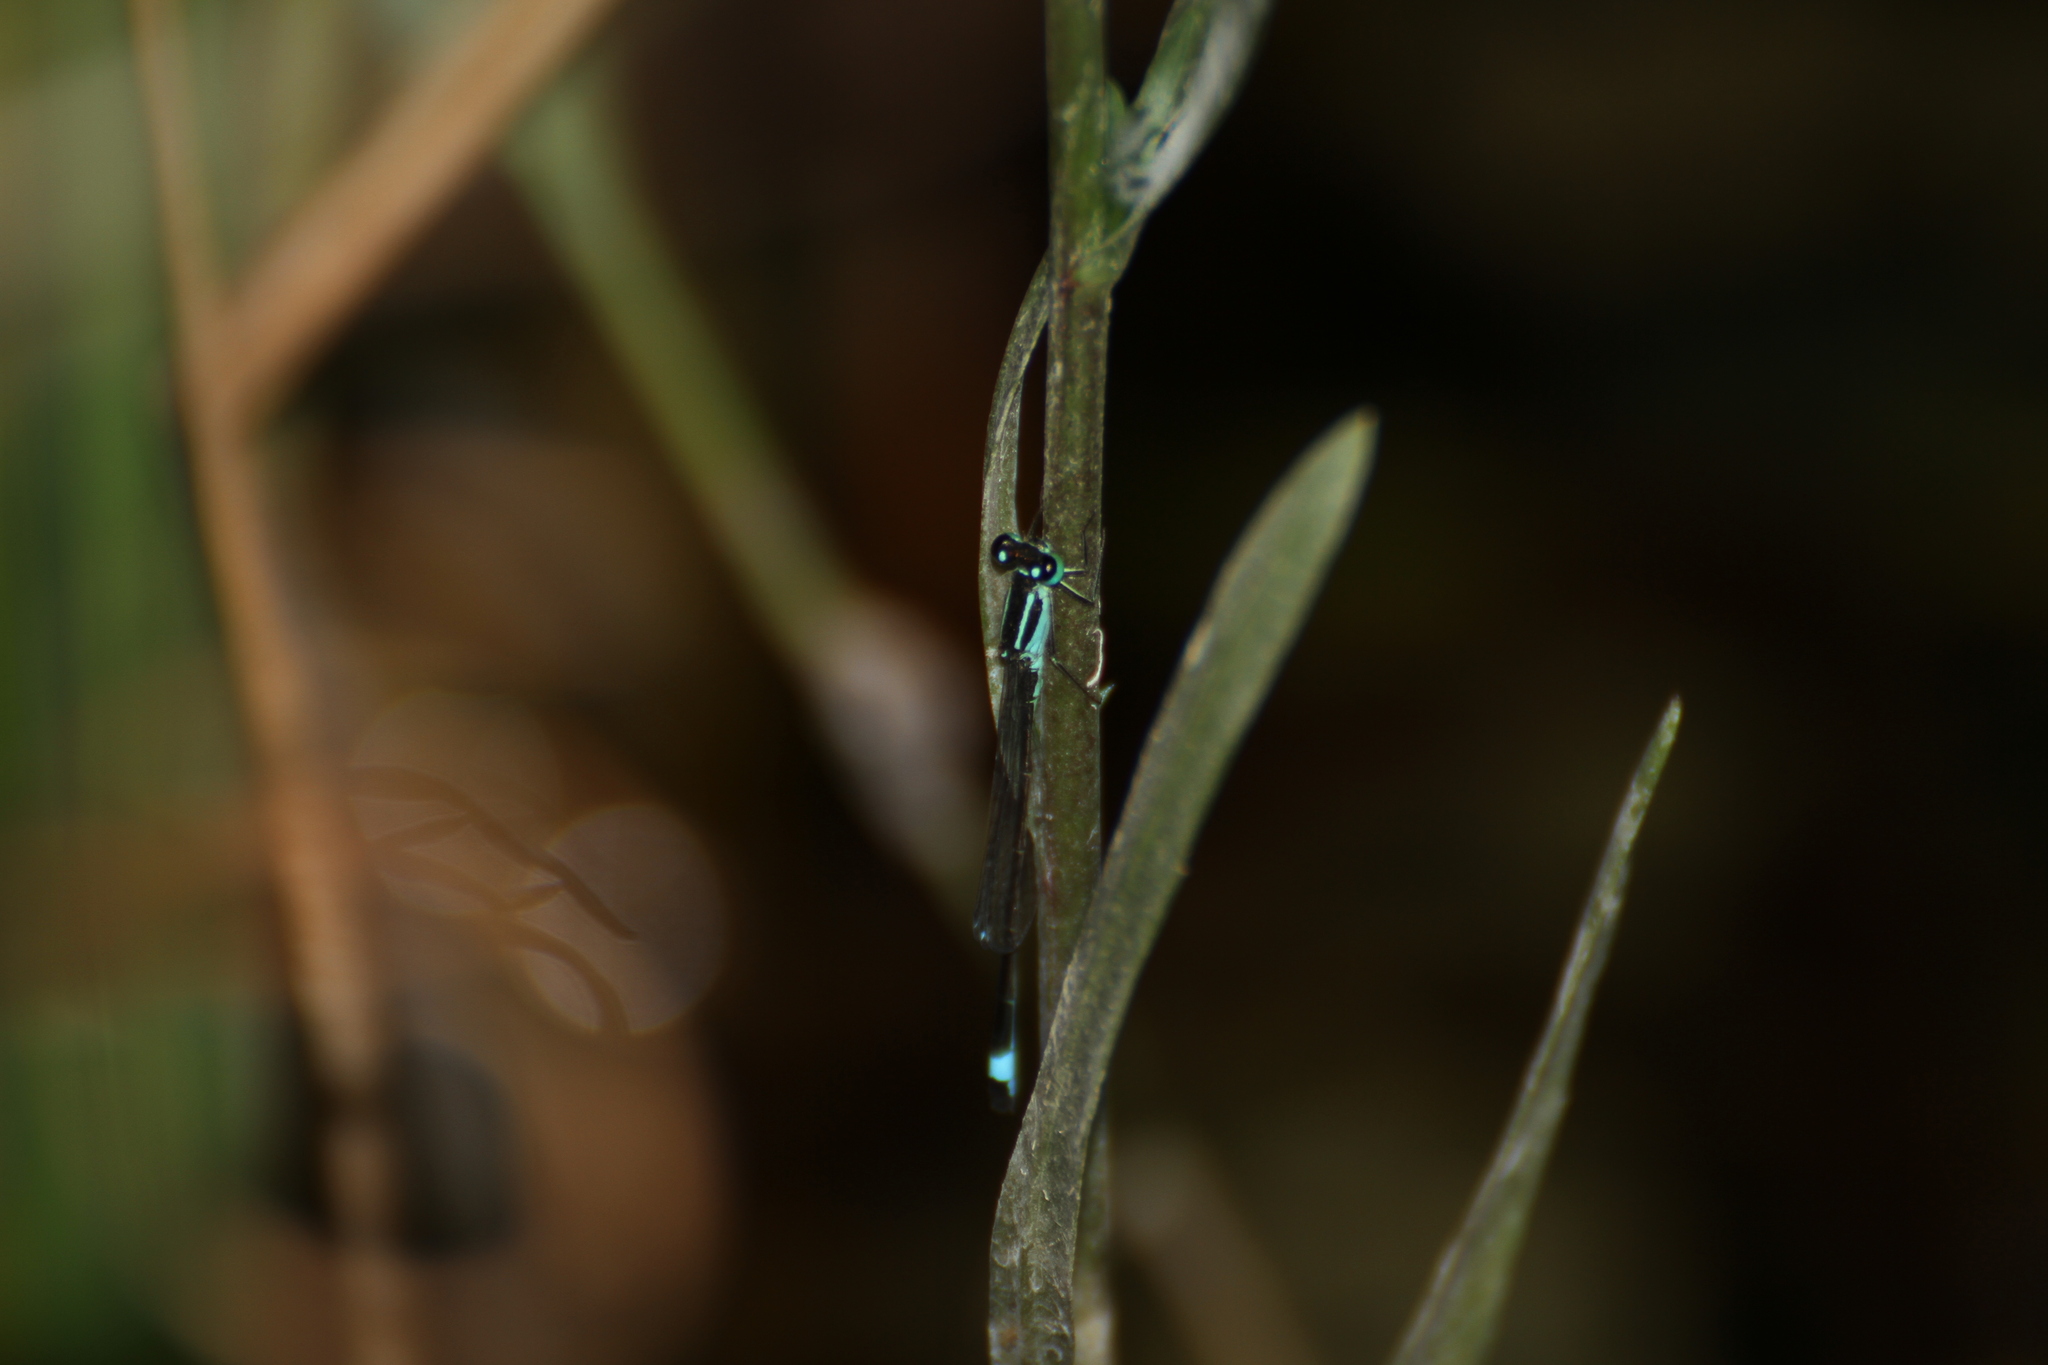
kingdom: Animalia
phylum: Arthropoda
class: Insecta
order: Odonata
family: Coenagrionidae
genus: Ischnura
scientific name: Ischnura elegans
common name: Blue-tailed damselfly
